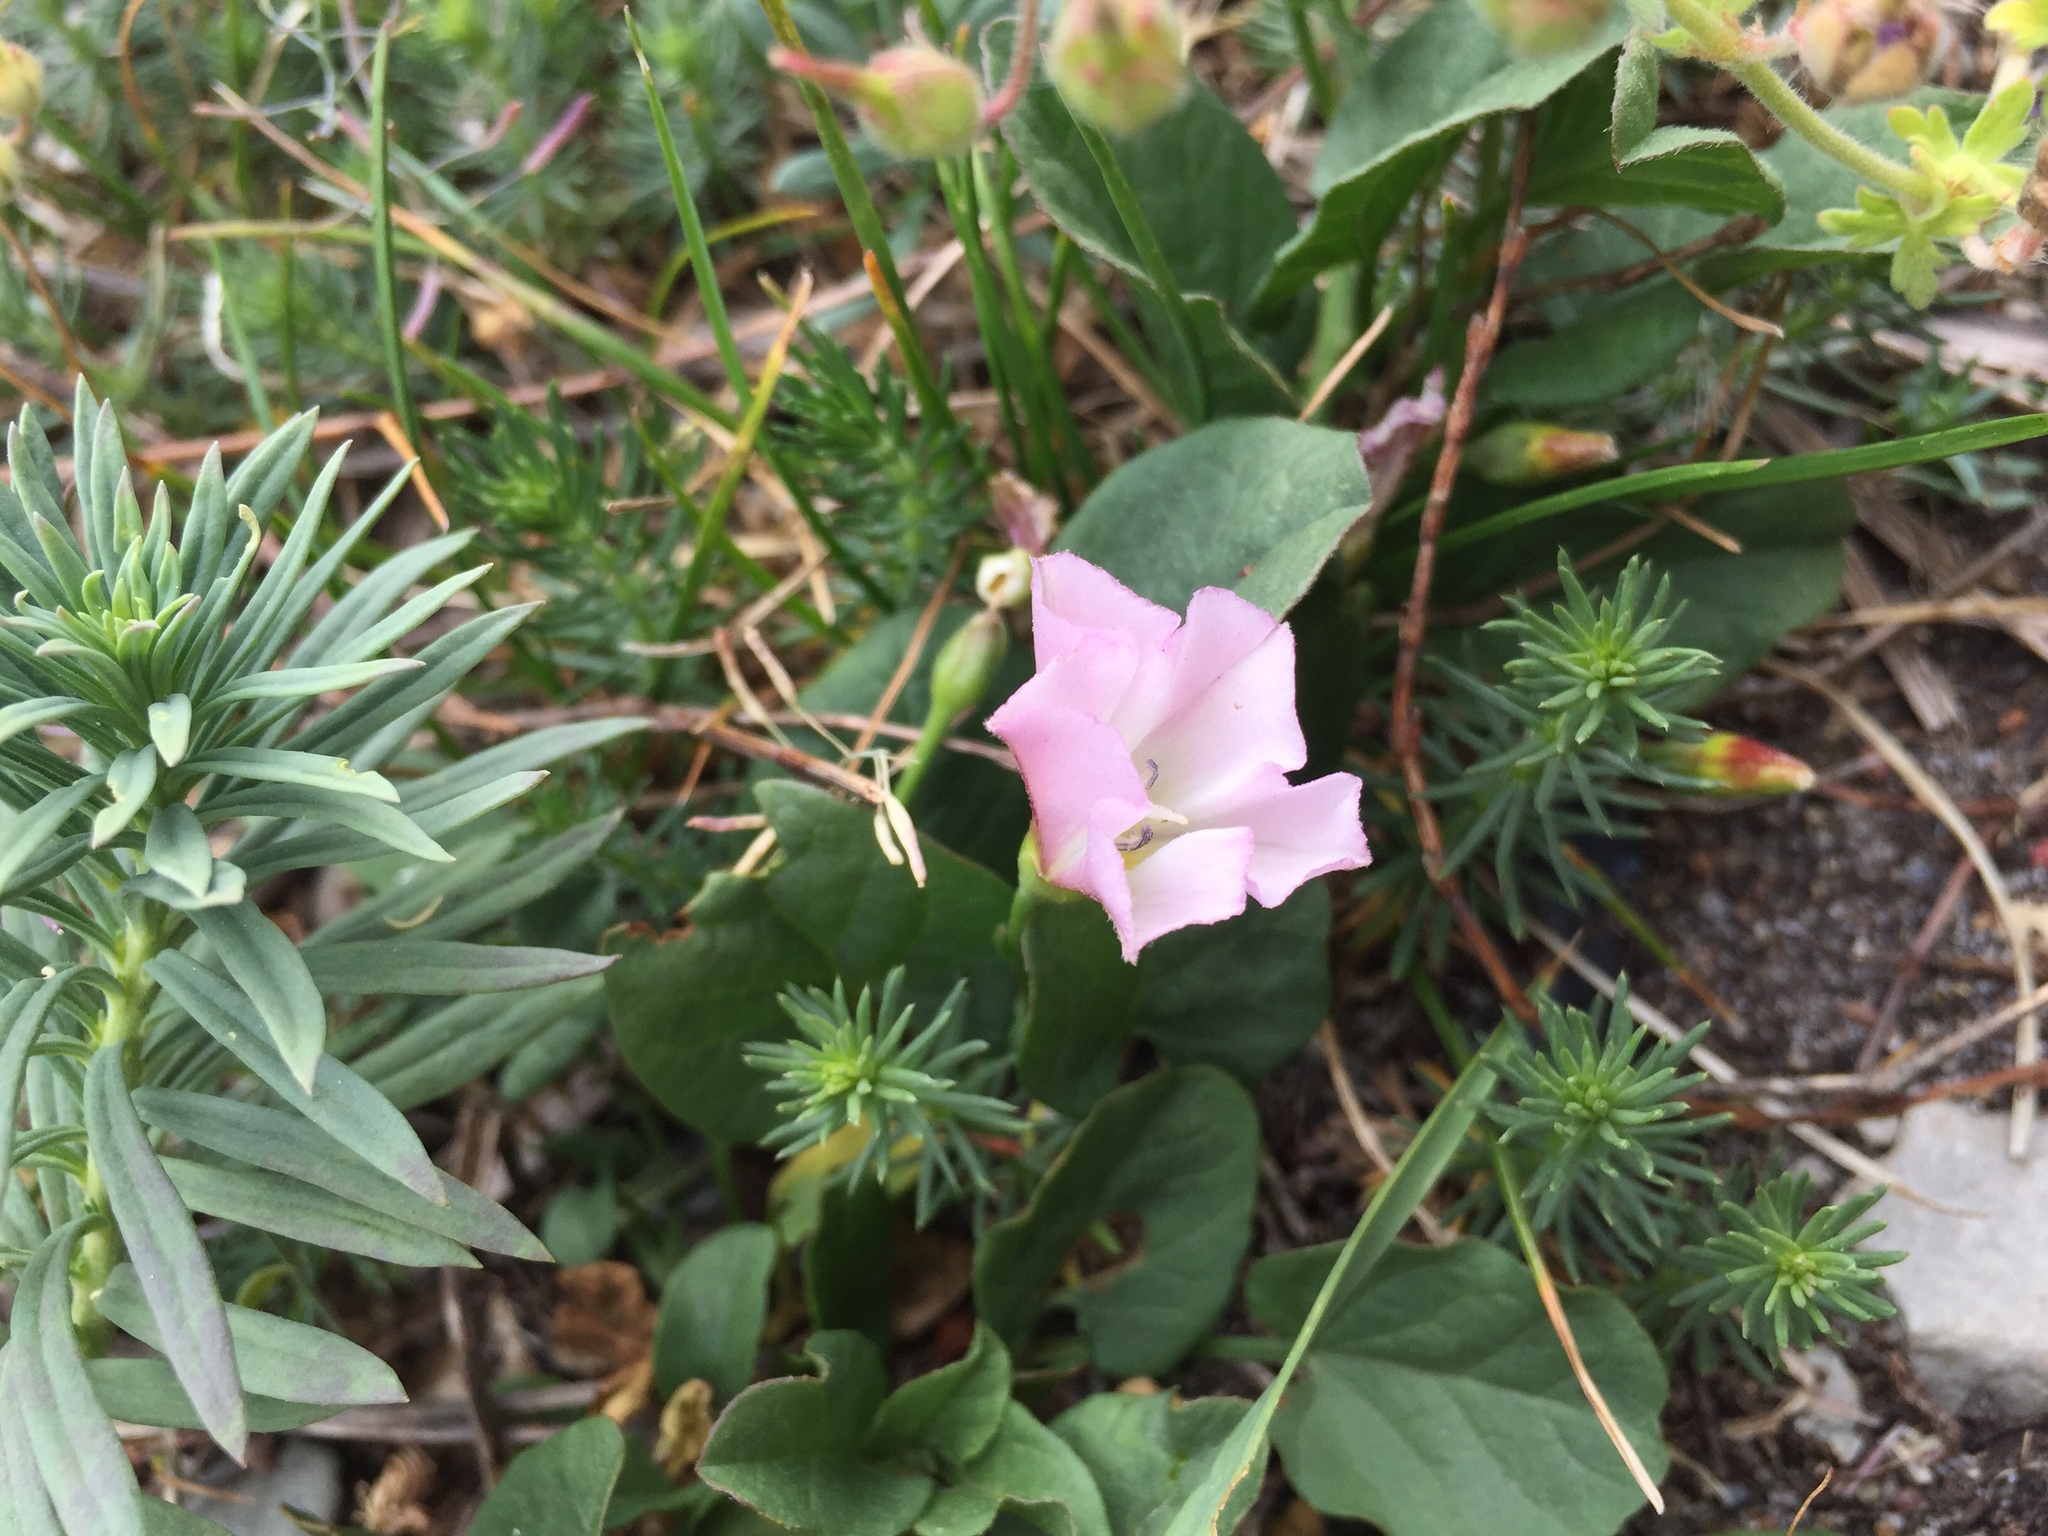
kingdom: Plantae
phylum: Tracheophyta
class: Magnoliopsida
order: Solanales
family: Convolvulaceae
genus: Convolvulus
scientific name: Convolvulus arvensis
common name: Field bindweed
